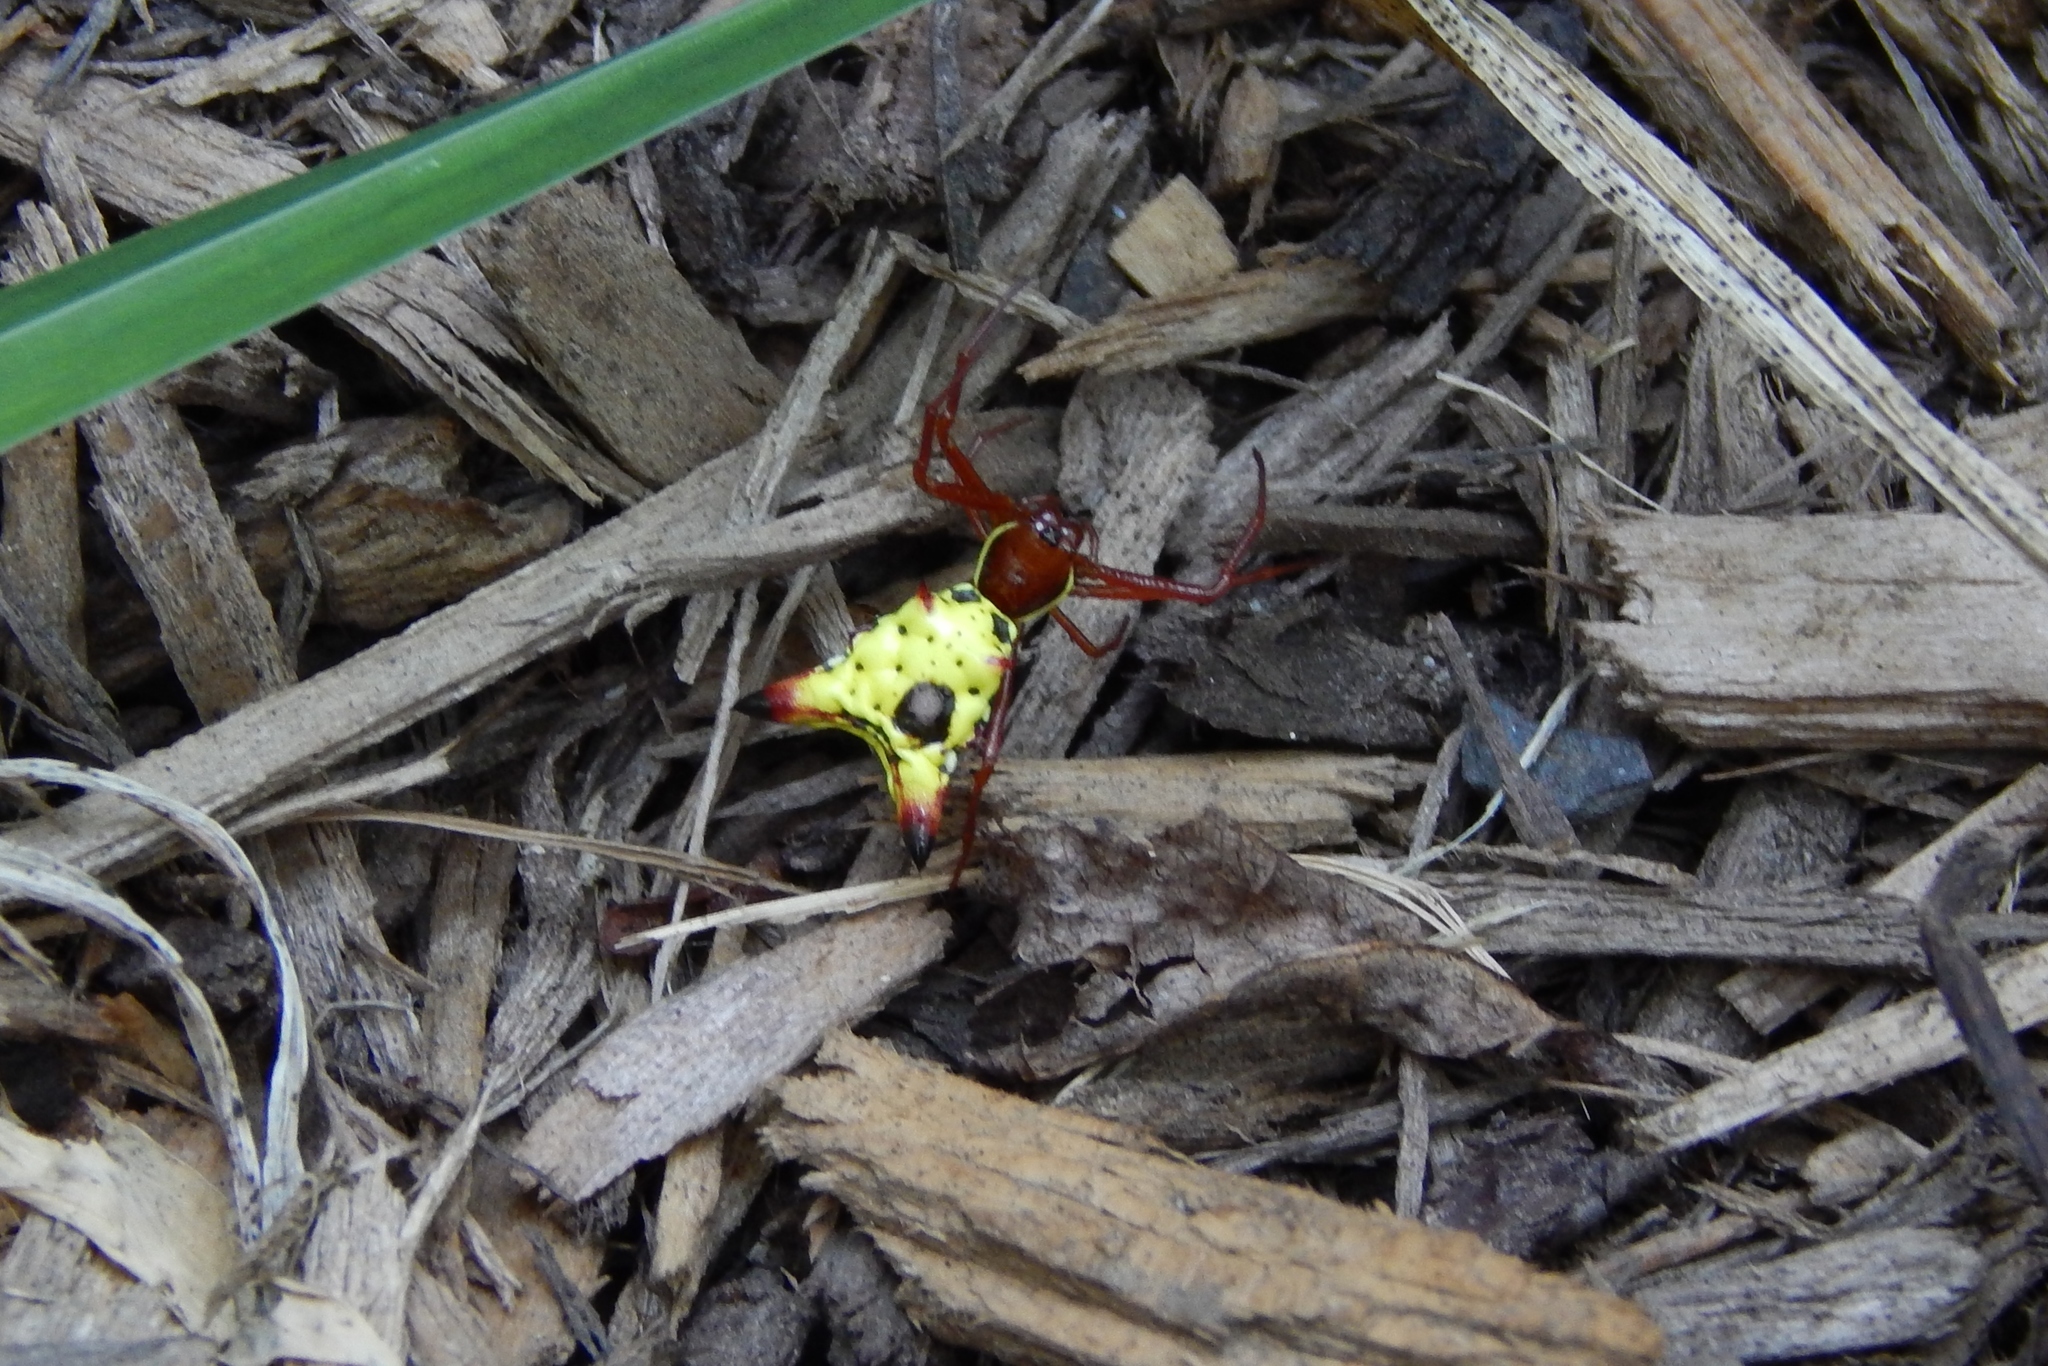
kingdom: Animalia
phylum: Arthropoda
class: Arachnida
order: Araneae
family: Araneidae
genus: Micrathena
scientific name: Micrathena sagittata
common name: Orb weavers
